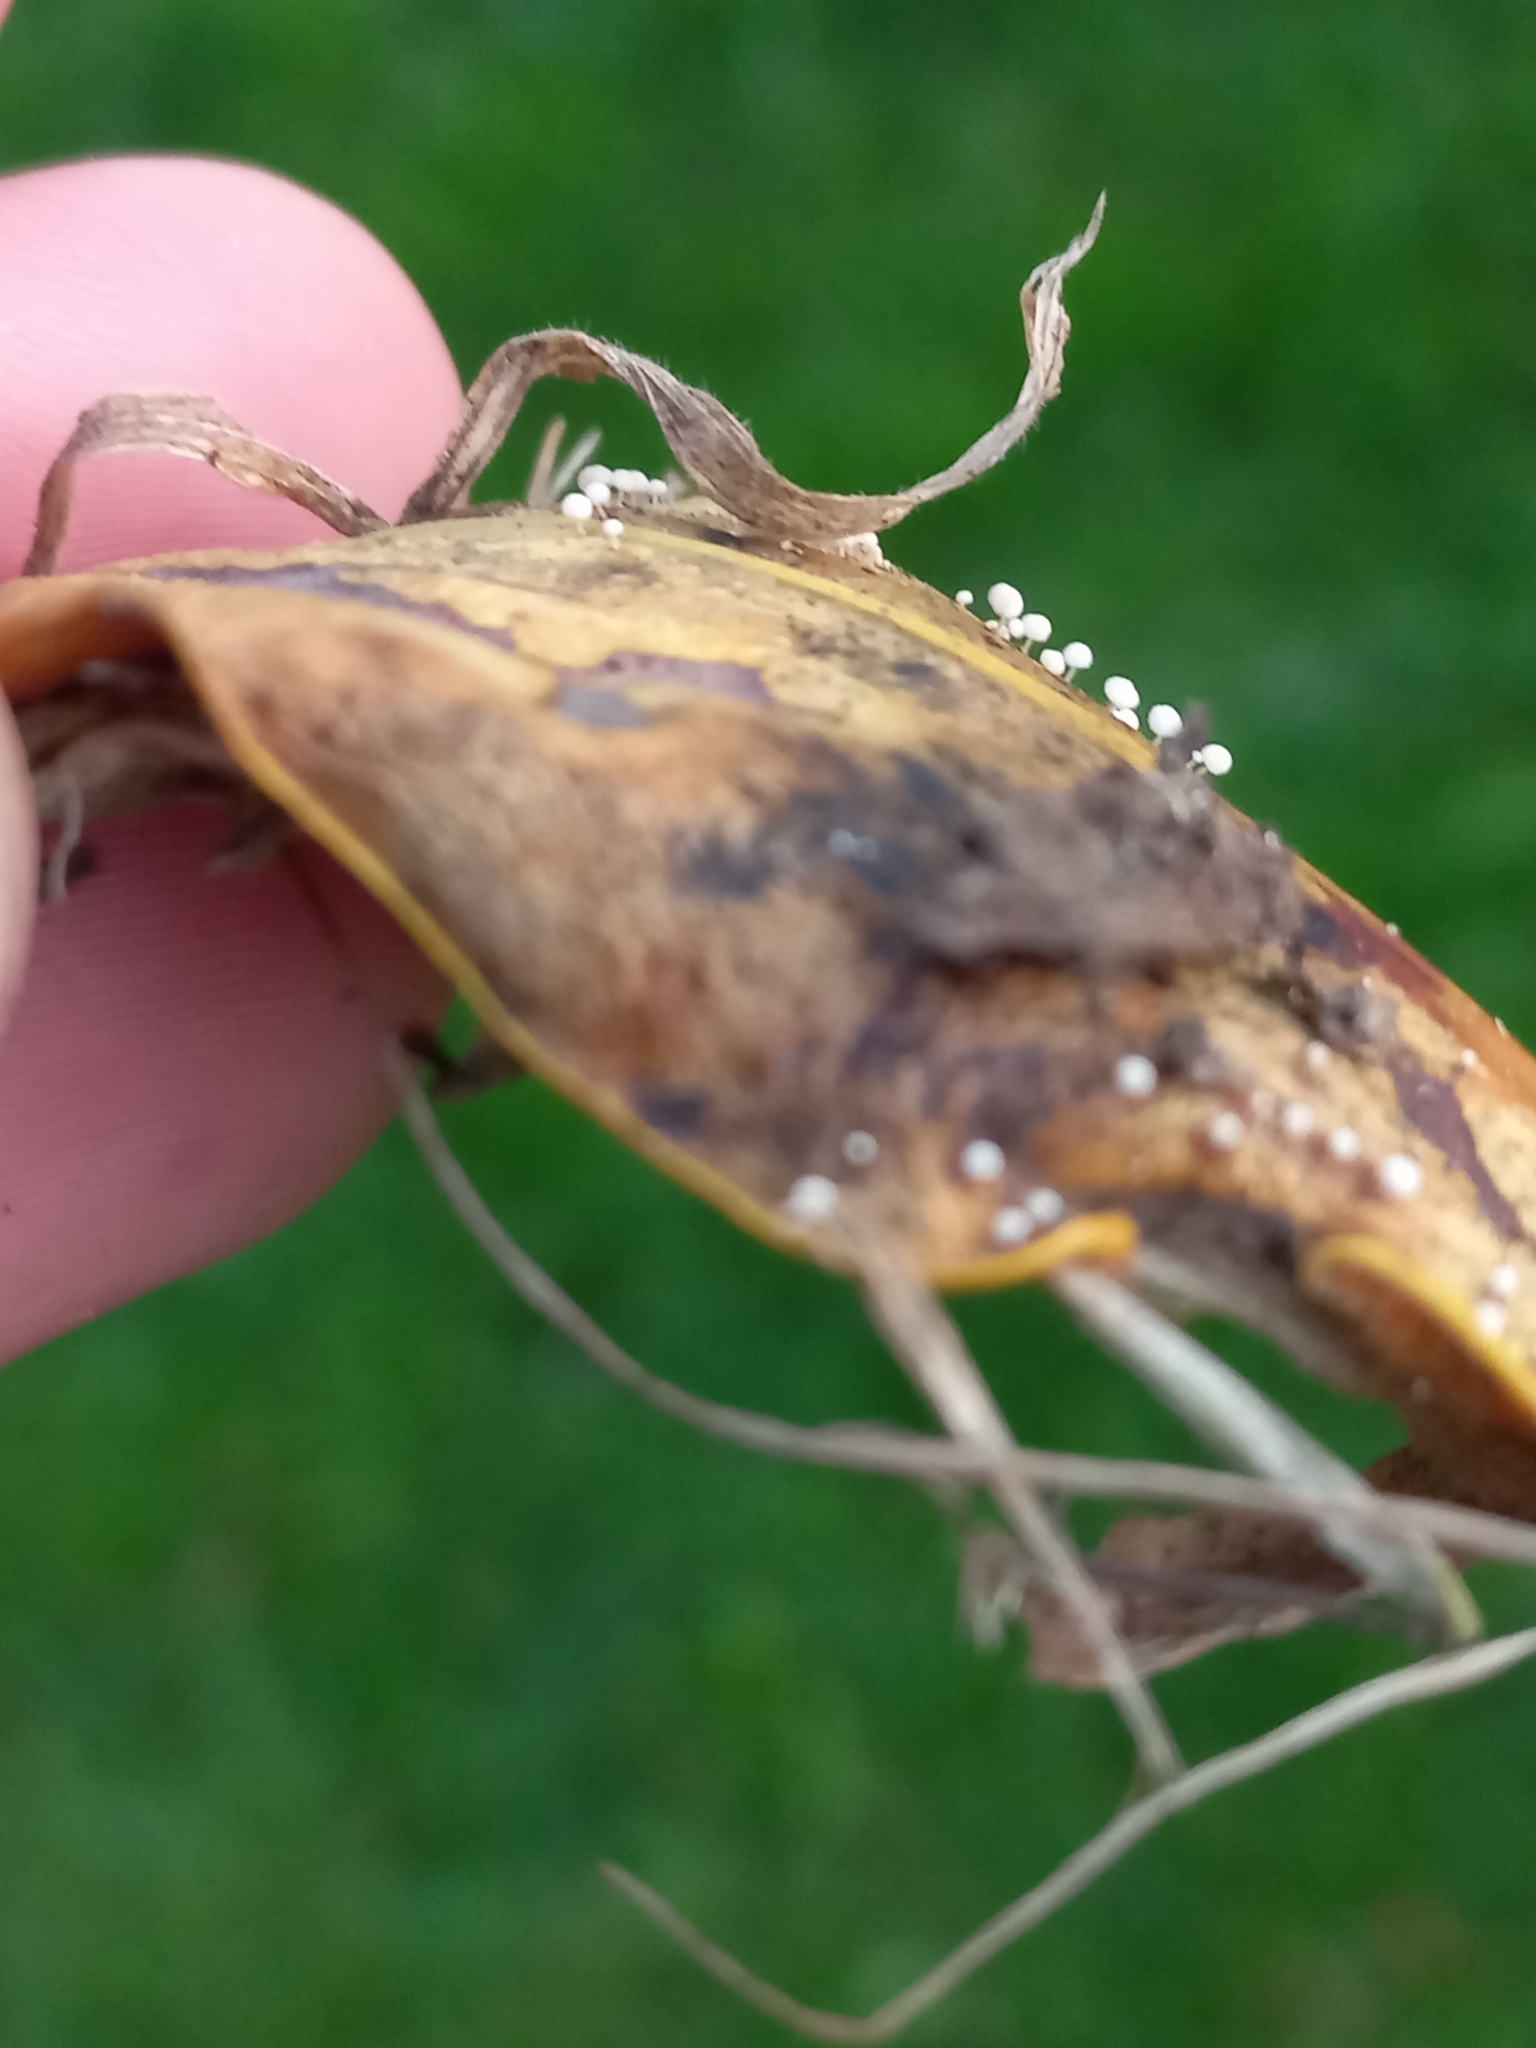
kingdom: Fungi
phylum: Basidiomycota
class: Agaricomycetes
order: Agaricales
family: Physalacriaceae
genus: Physalacria
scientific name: Physalacria stilboidea
